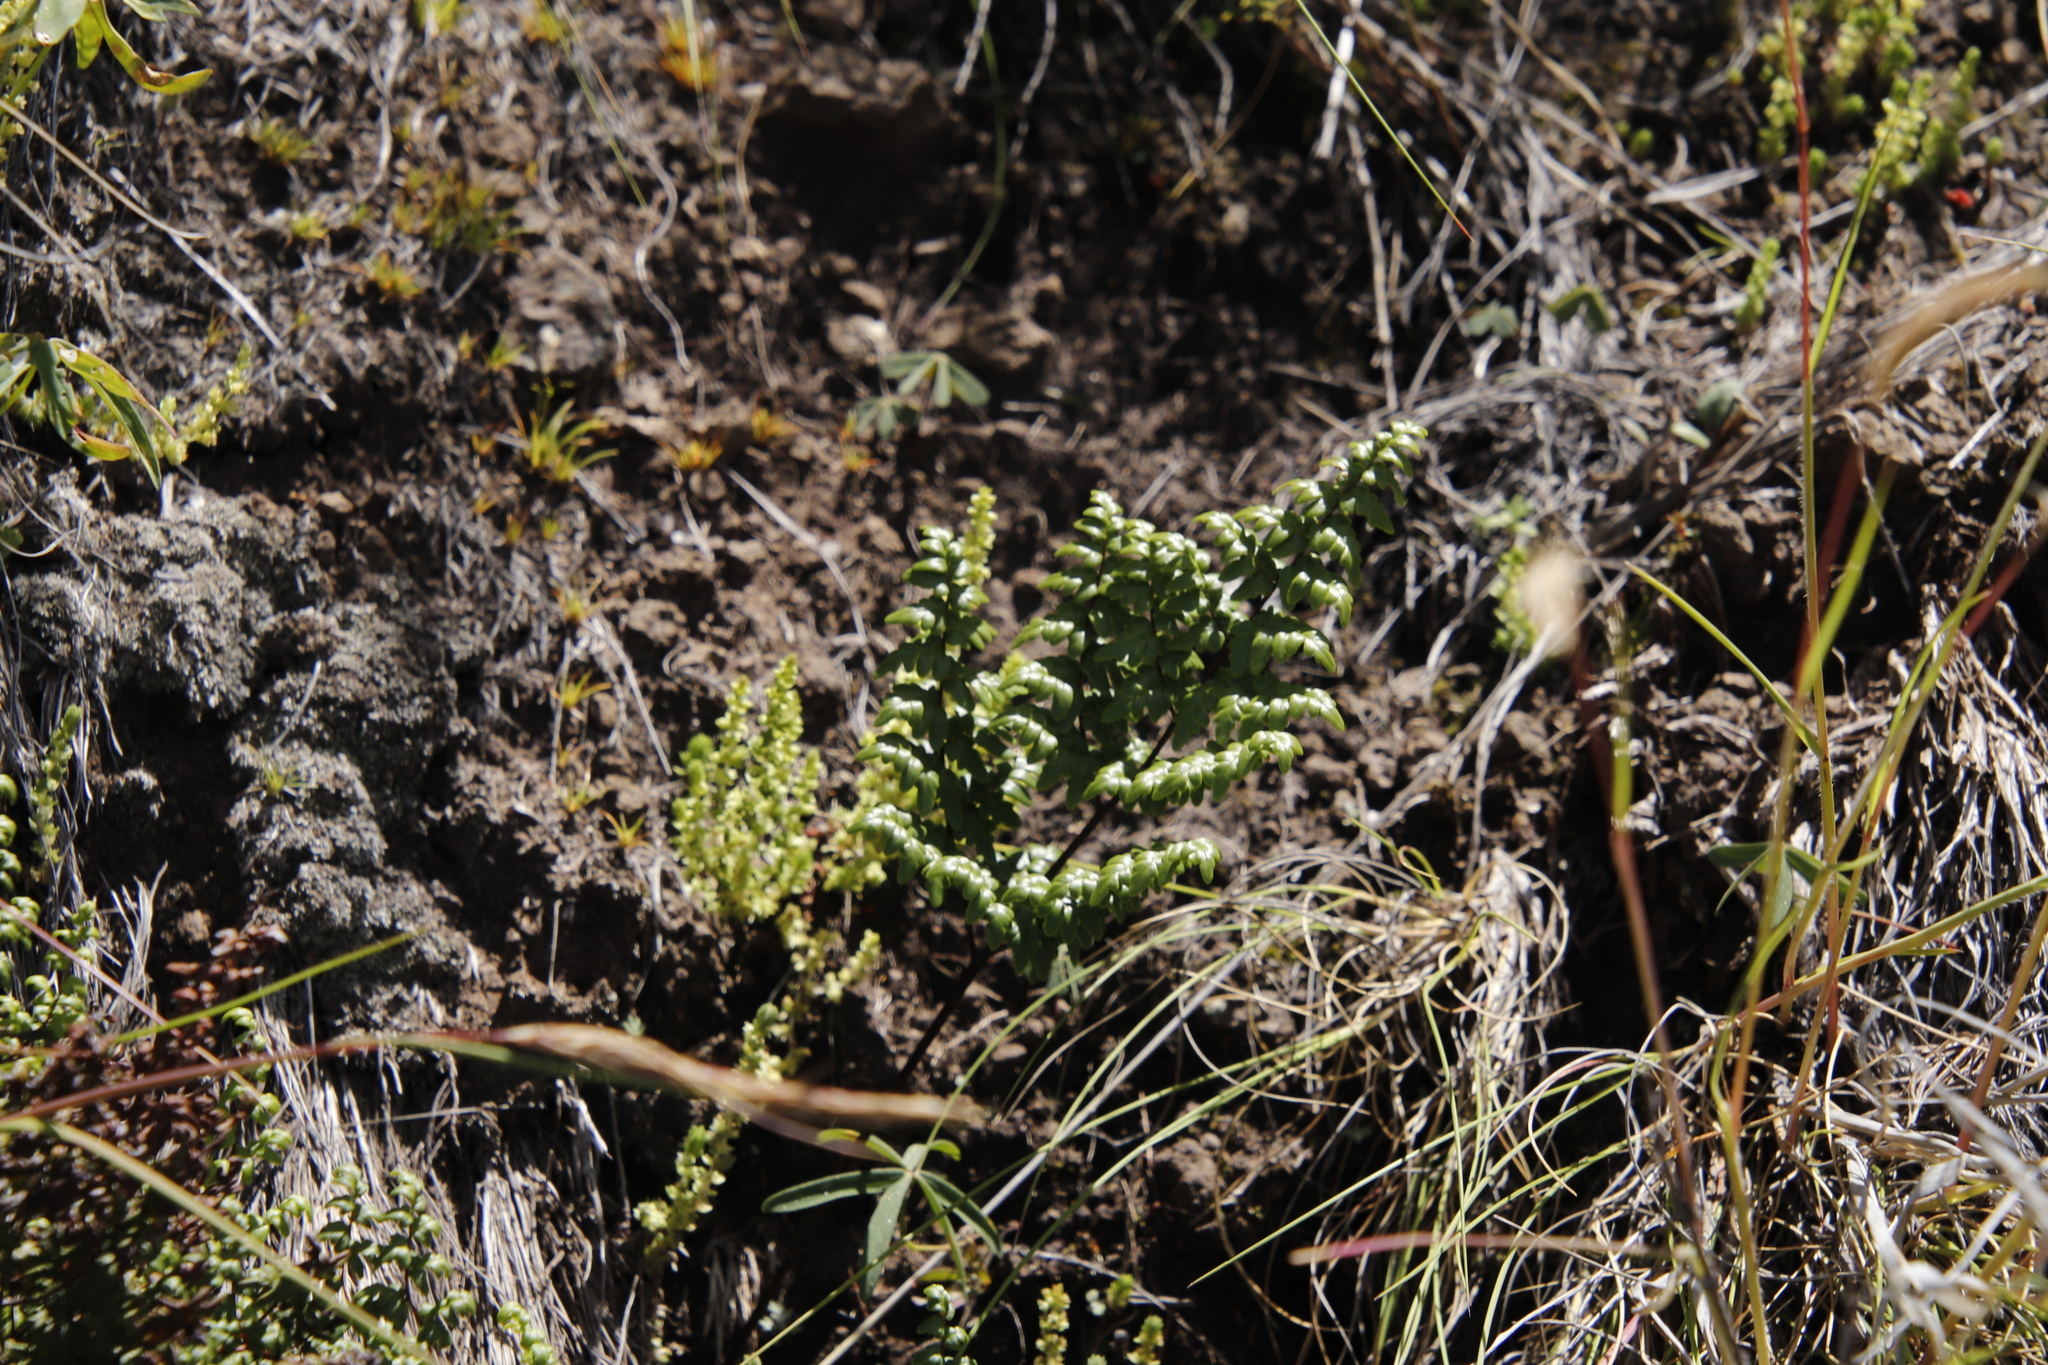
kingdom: Plantae
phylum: Tracheophyta
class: Polypodiopsida
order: Polypodiales
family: Pteridaceae
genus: Cheilanthes
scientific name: Cheilanthes quadripinnata
